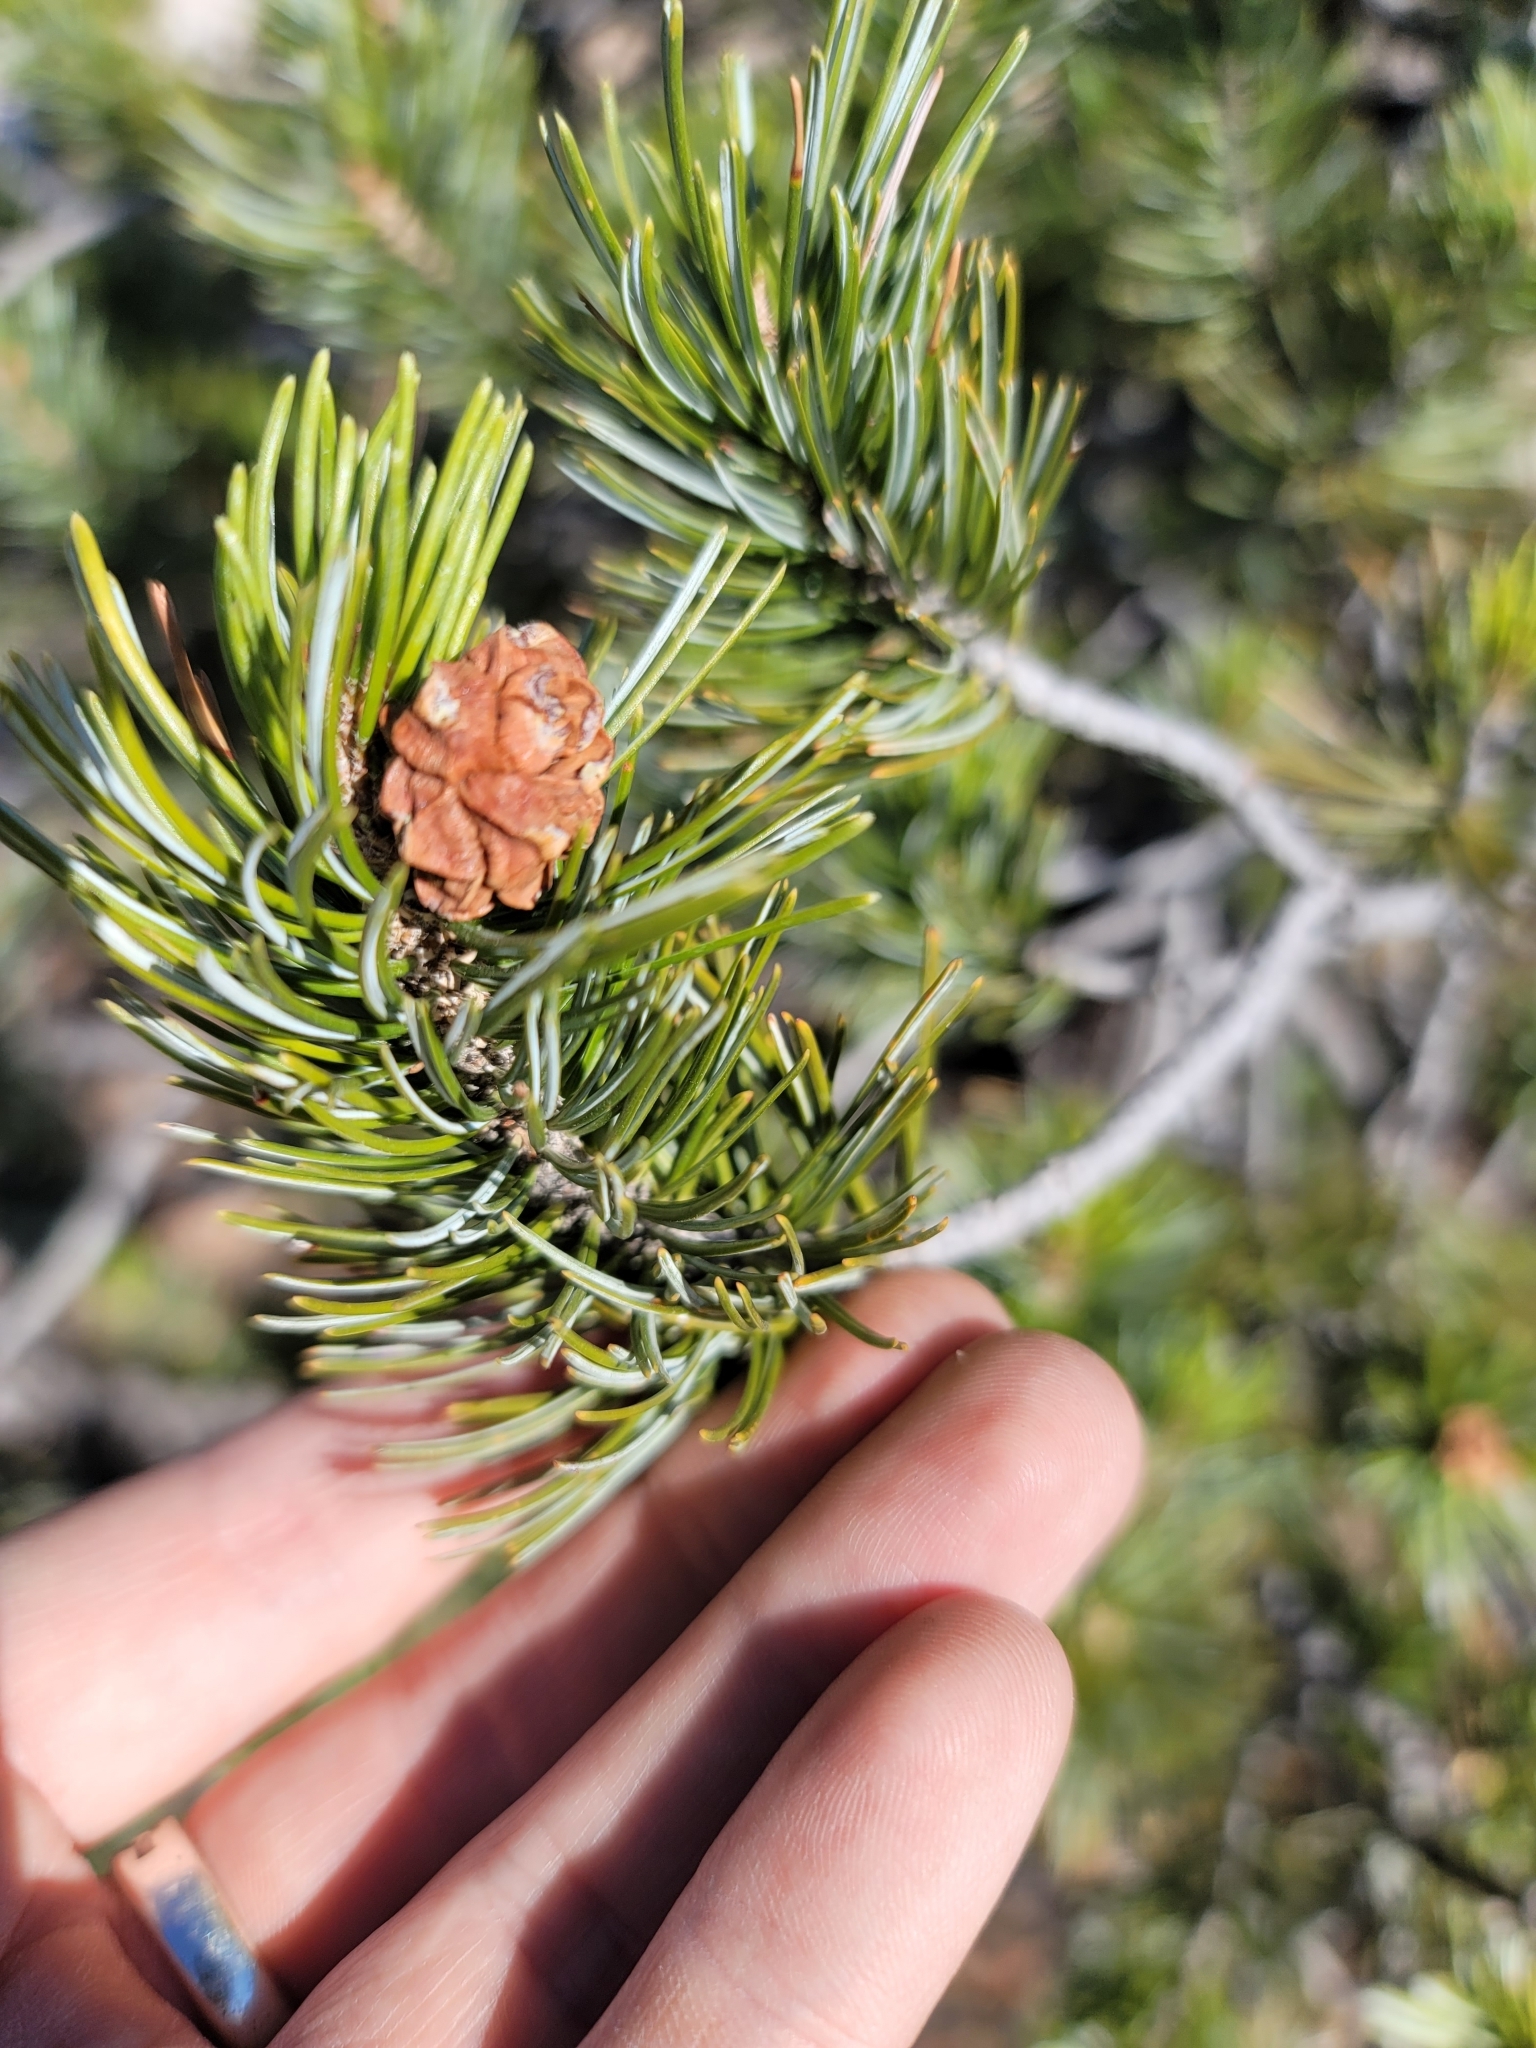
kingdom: Plantae
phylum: Tracheophyta
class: Pinopsida
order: Pinales
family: Pinaceae
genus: Pinus
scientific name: Pinus cembroides
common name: Mexican nut pine
